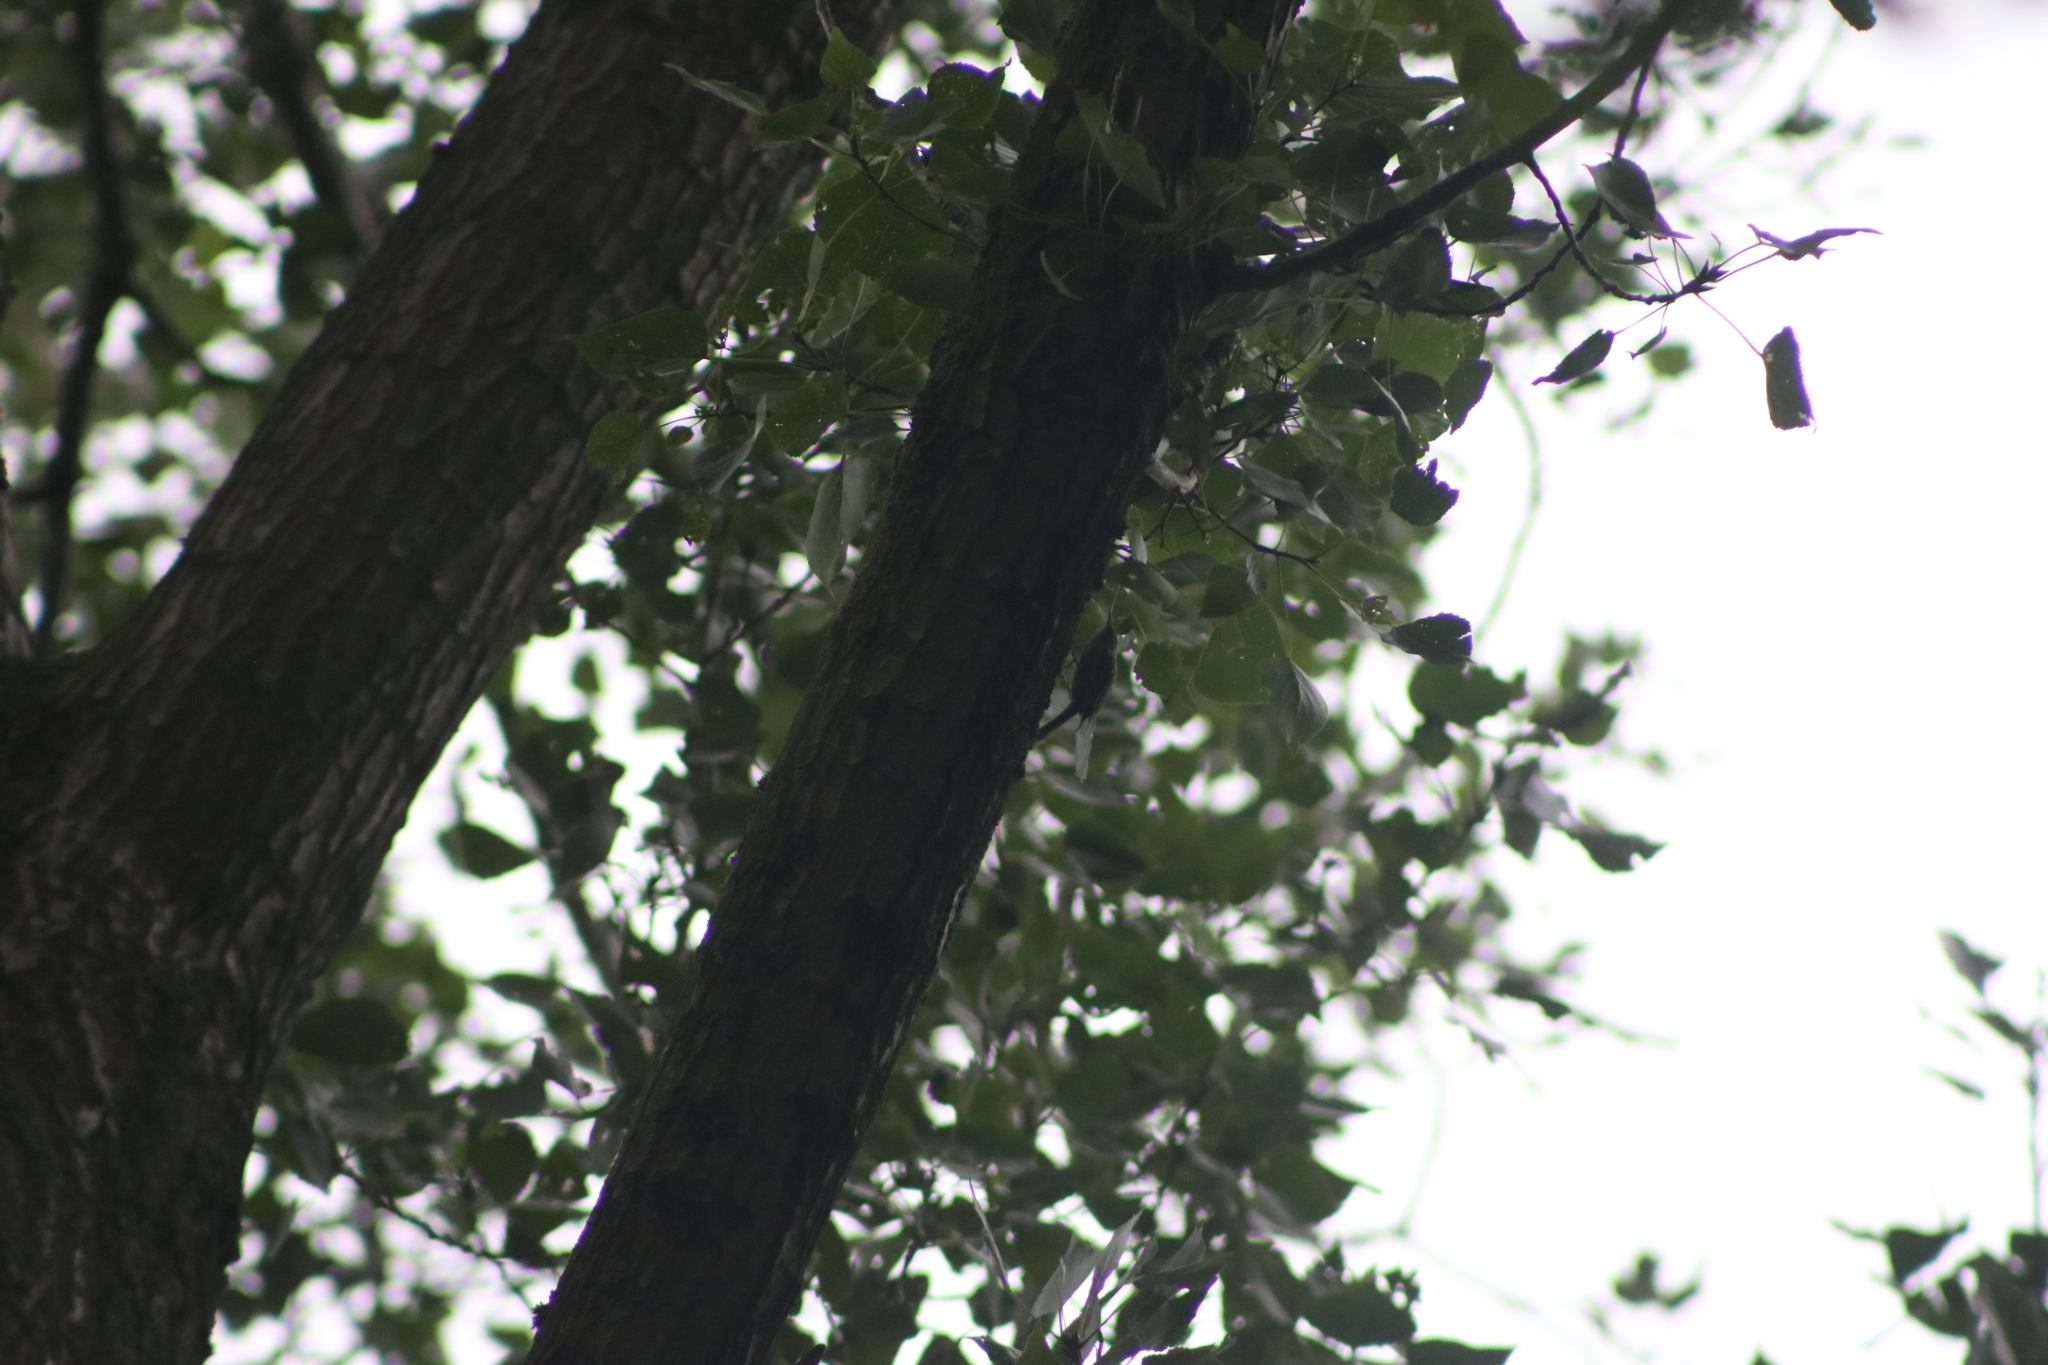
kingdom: Animalia
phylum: Chordata
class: Aves
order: Passeriformes
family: Certhiidae
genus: Certhia
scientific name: Certhia brachydactyla
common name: Short-toed treecreeper
